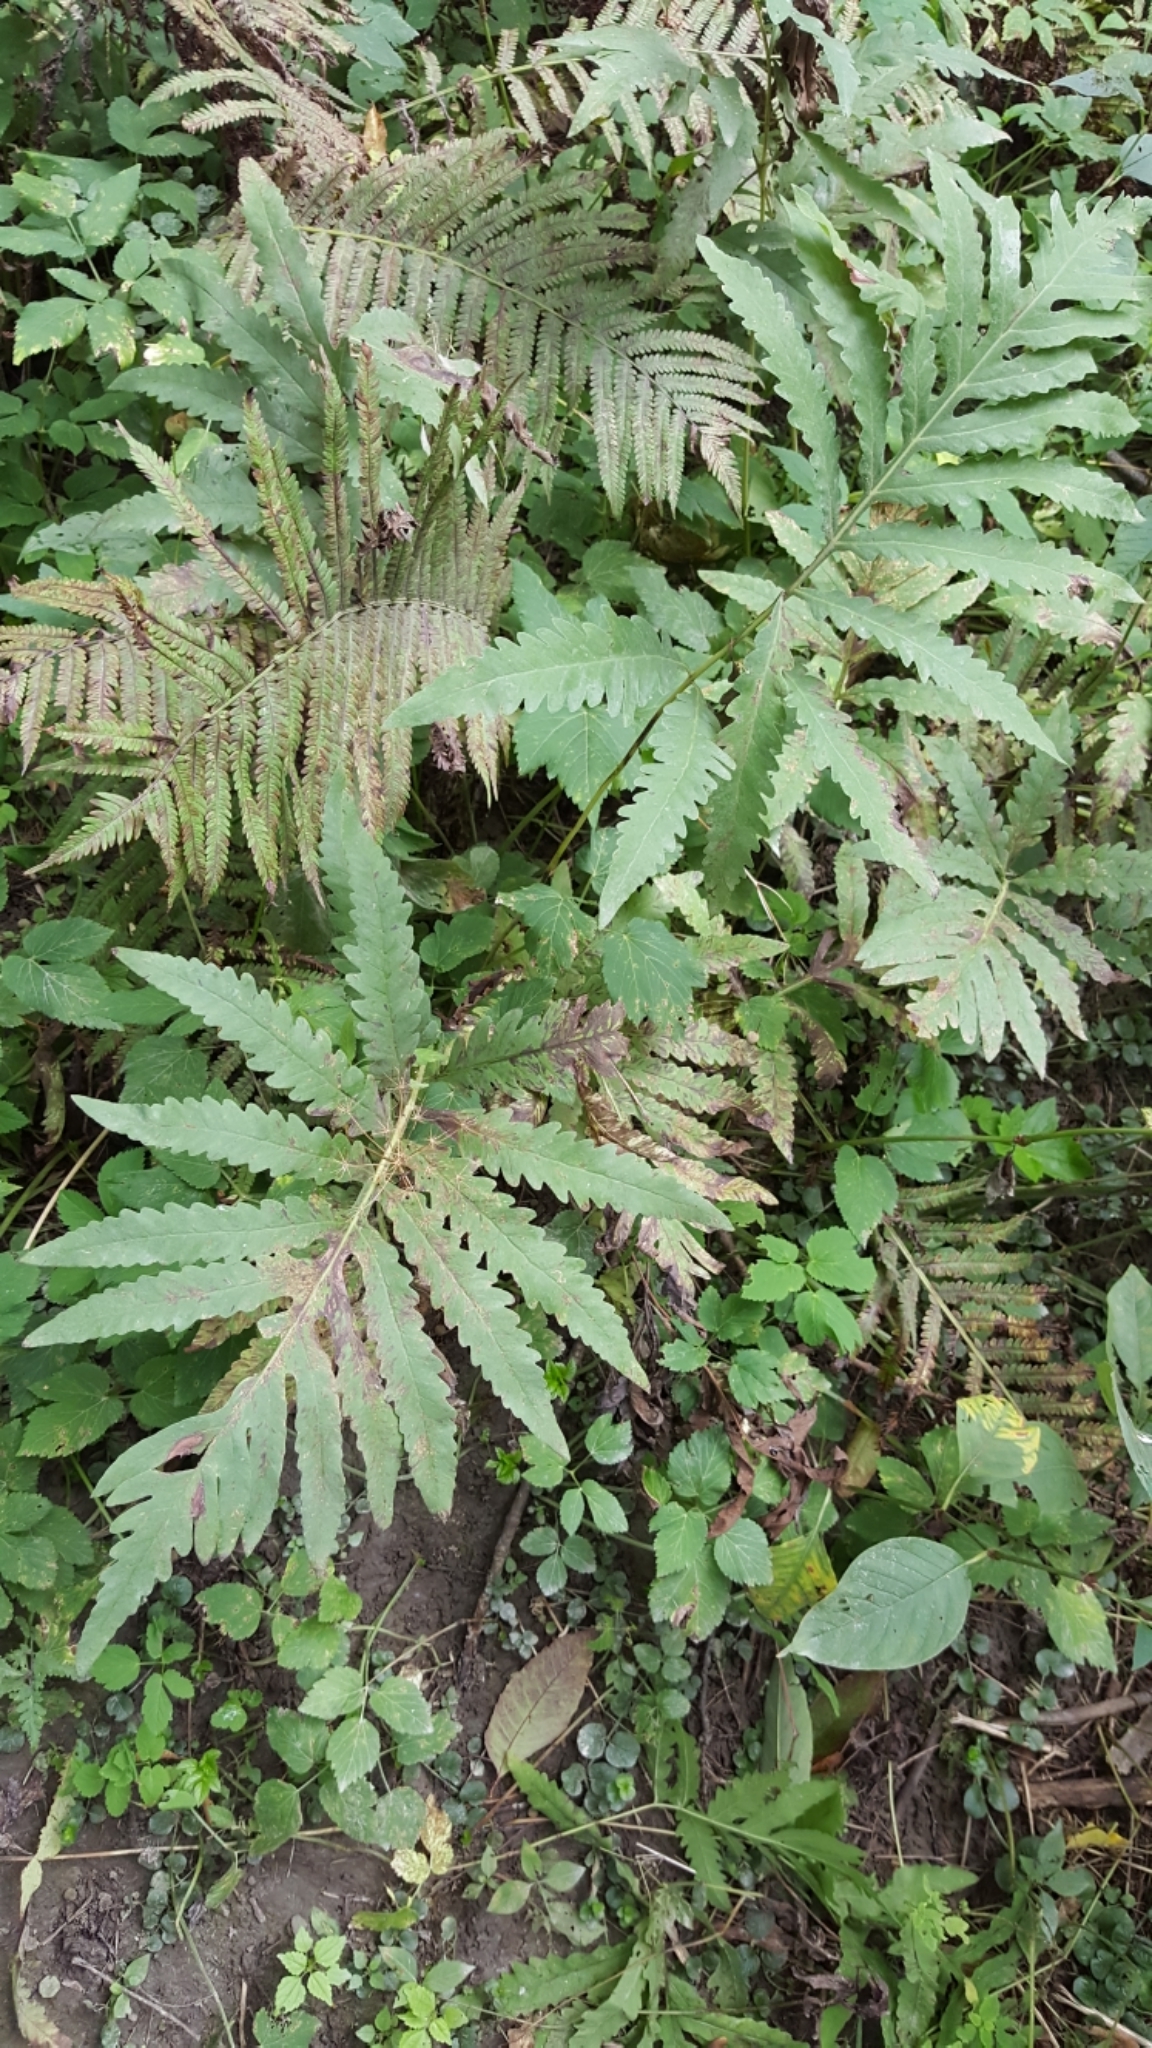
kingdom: Plantae
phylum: Tracheophyta
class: Polypodiopsida
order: Polypodiales
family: Onocleaceae
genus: Onoclea
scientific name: Onoclea sensibilis
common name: Sensitive fern
